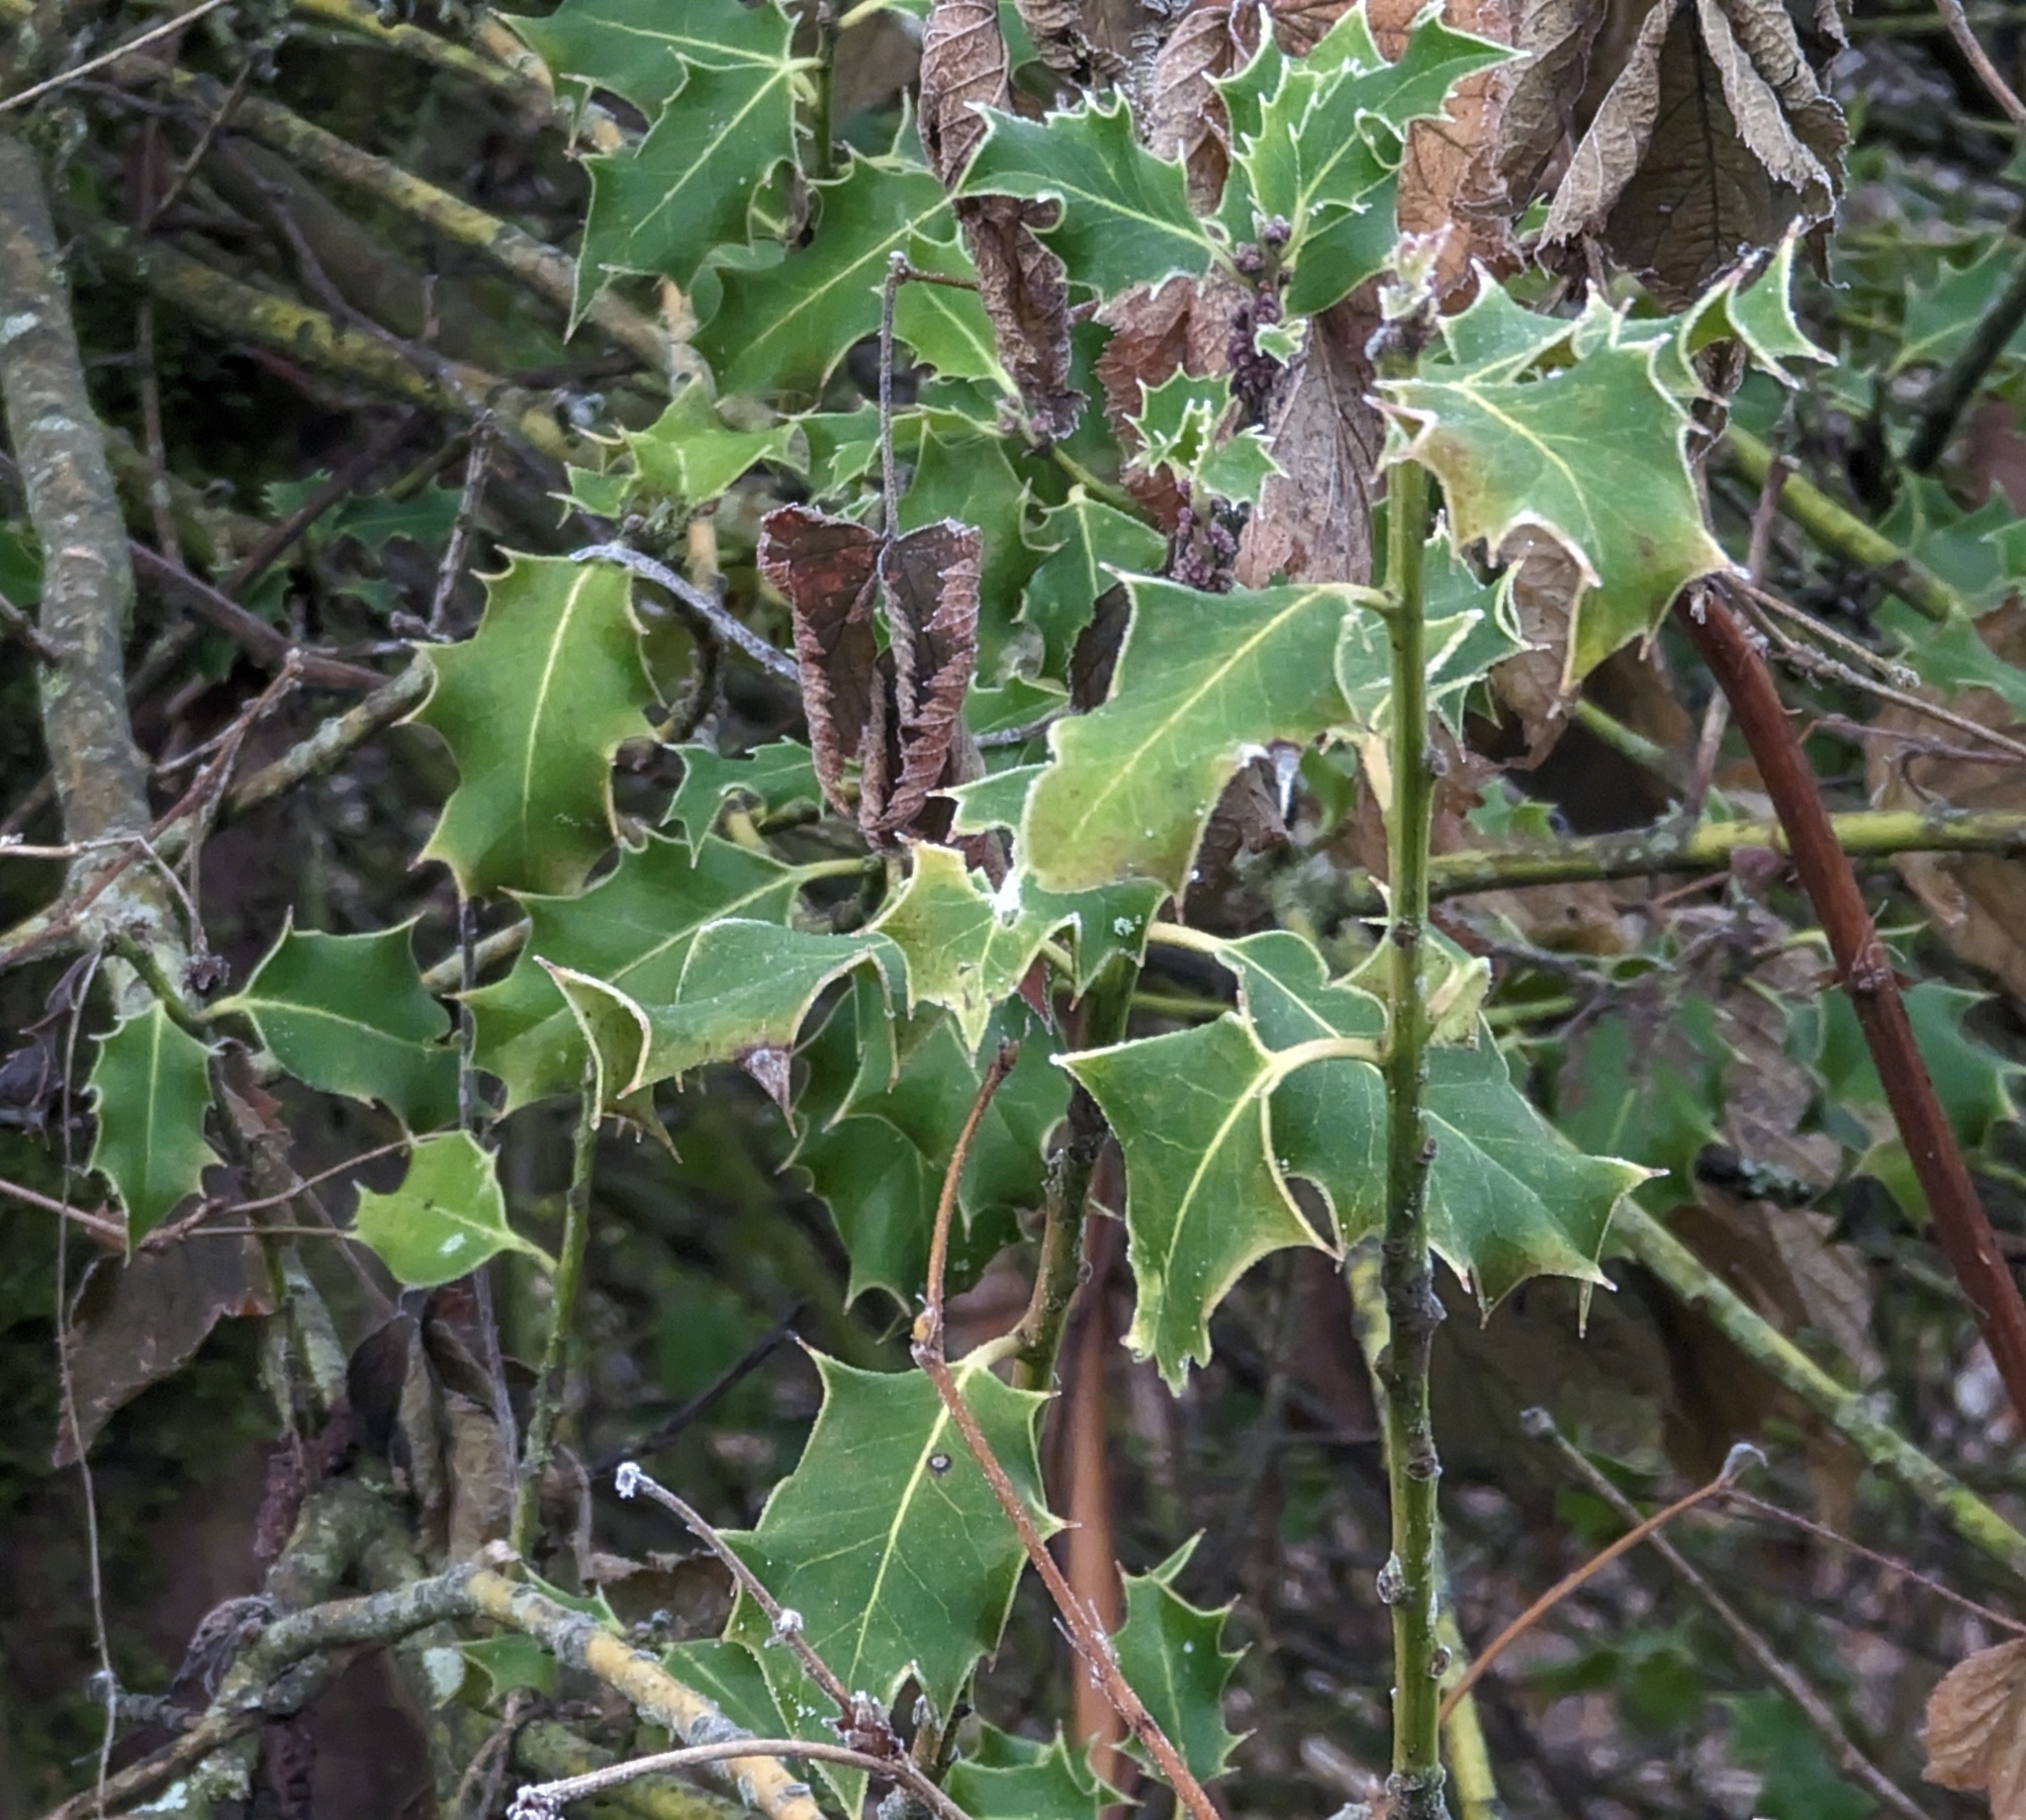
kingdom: Plantae
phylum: Tracheophyta
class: Magnoliopsida
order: Aquifoliales
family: Aquifoliaceae
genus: Ilex
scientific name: Ilex aquifolium
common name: English holly
